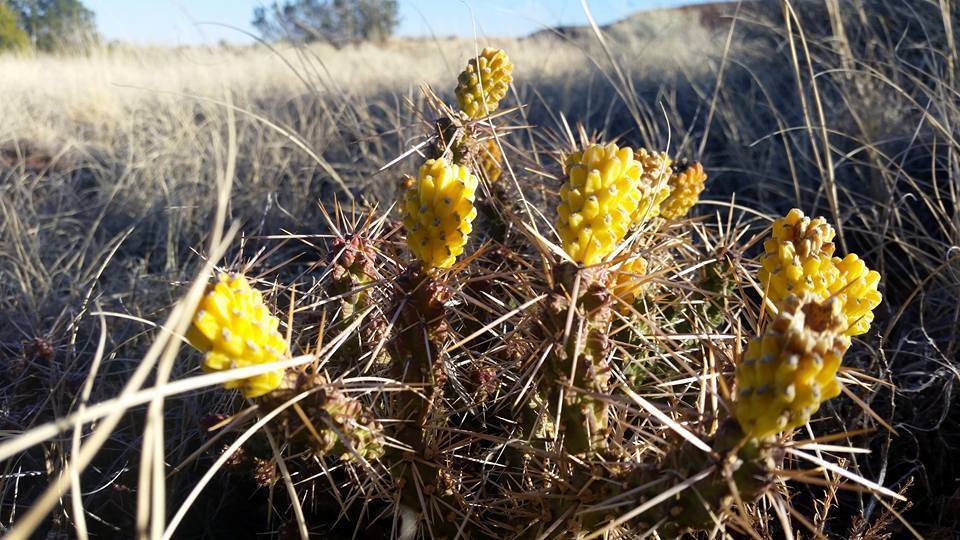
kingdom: Plantae
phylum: Tracheophyta
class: Magnoliopsida
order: Caryophyllales
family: Cactaceae
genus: Cylindropuntia
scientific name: Cylindropuntia whipplei
